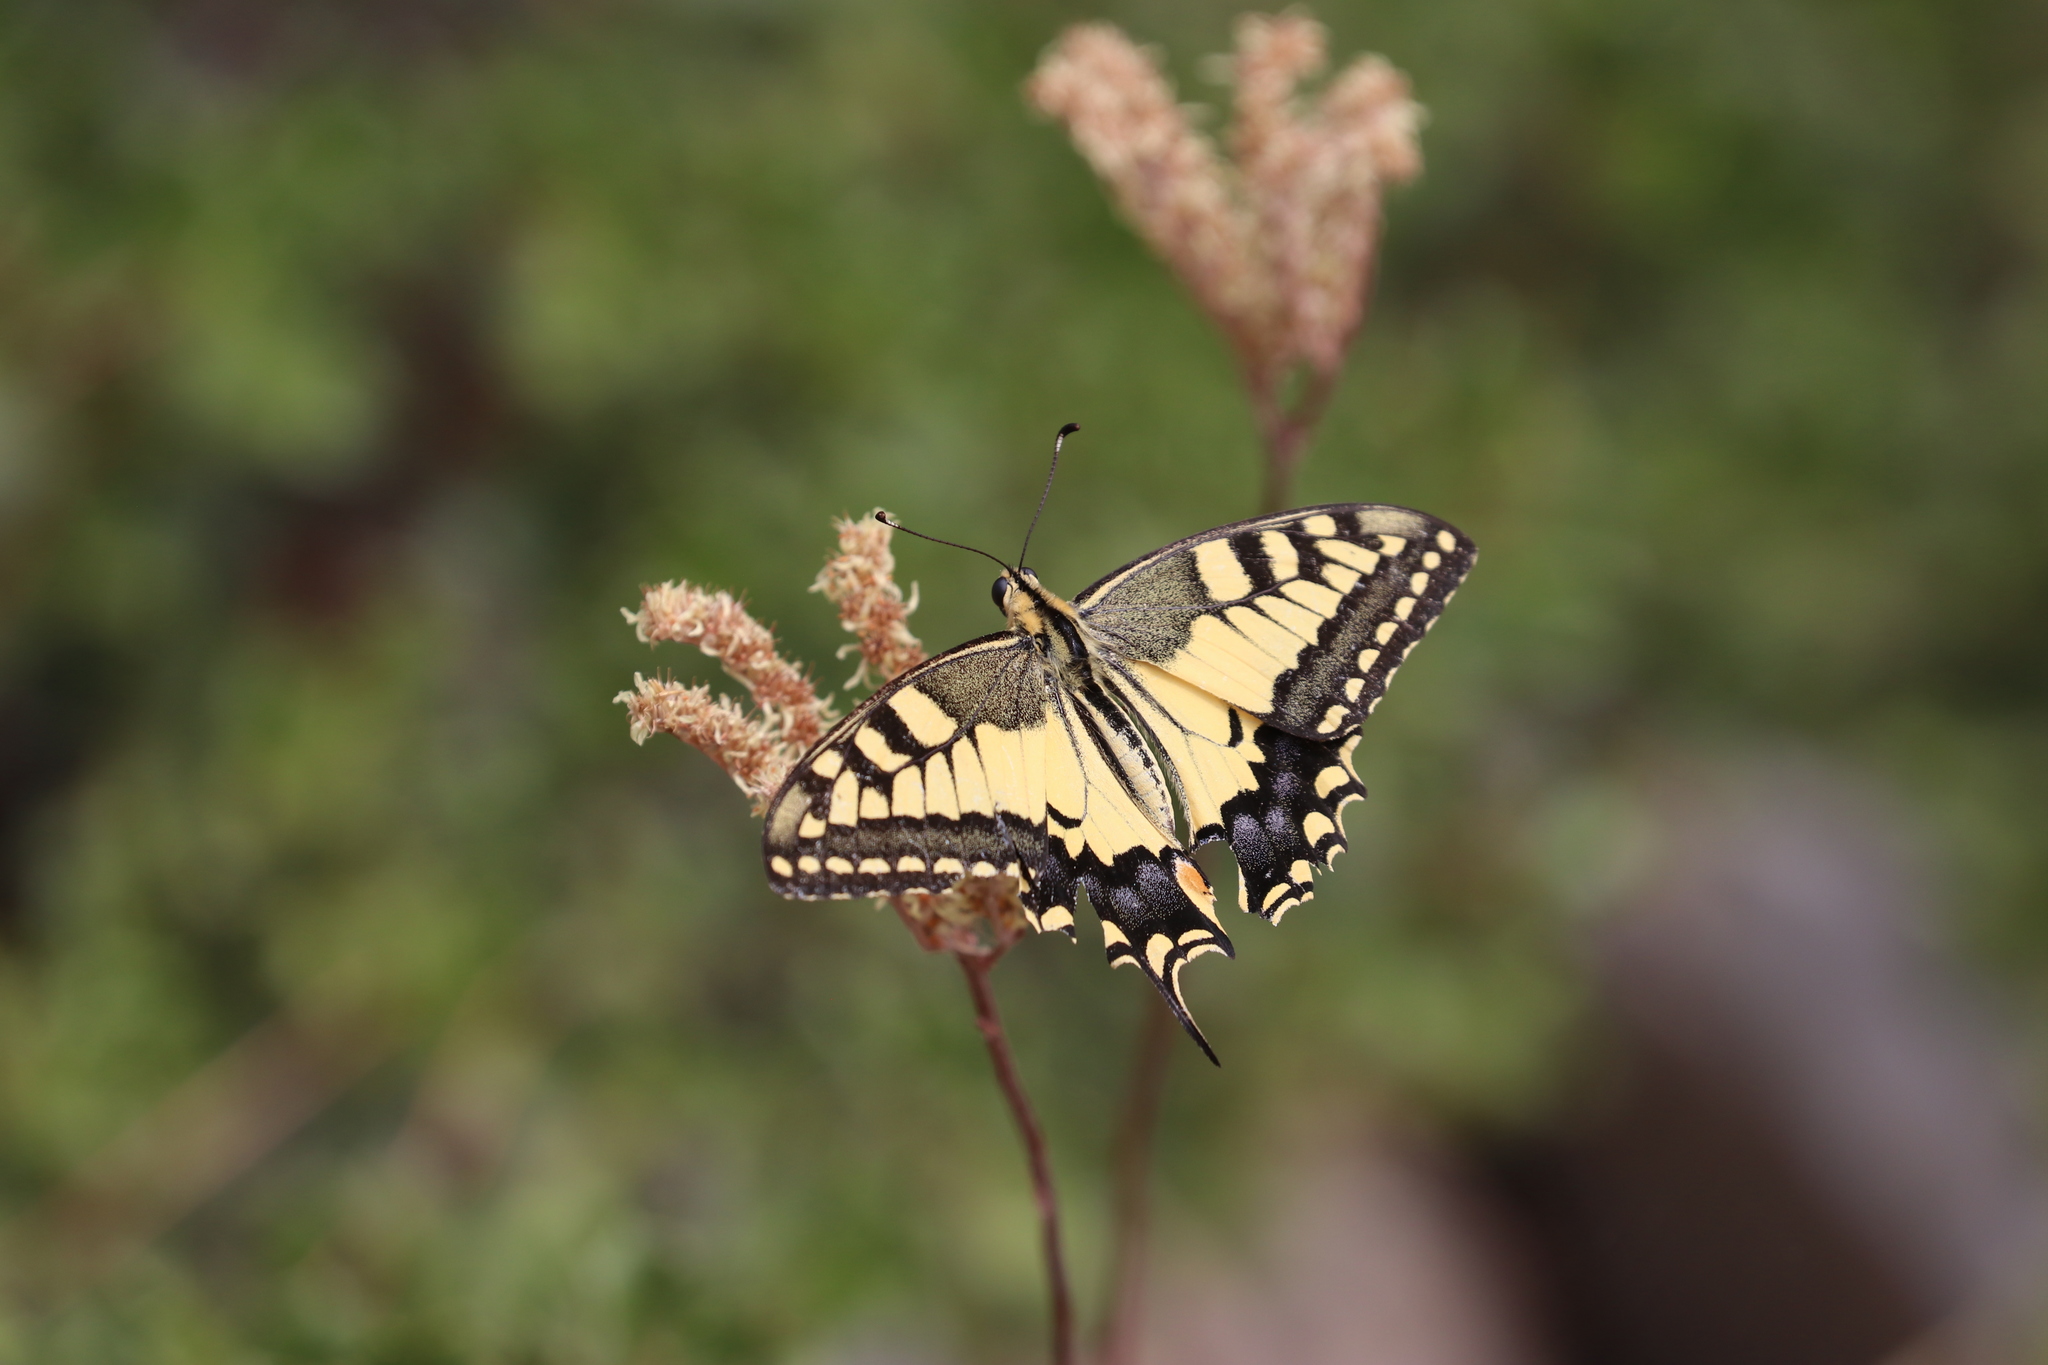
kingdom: Animalia
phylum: Arthropoda
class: Insecta
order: Lepidoptera
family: Papilionidae
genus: Papilio
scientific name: Papilio machaon
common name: Swallowtail
